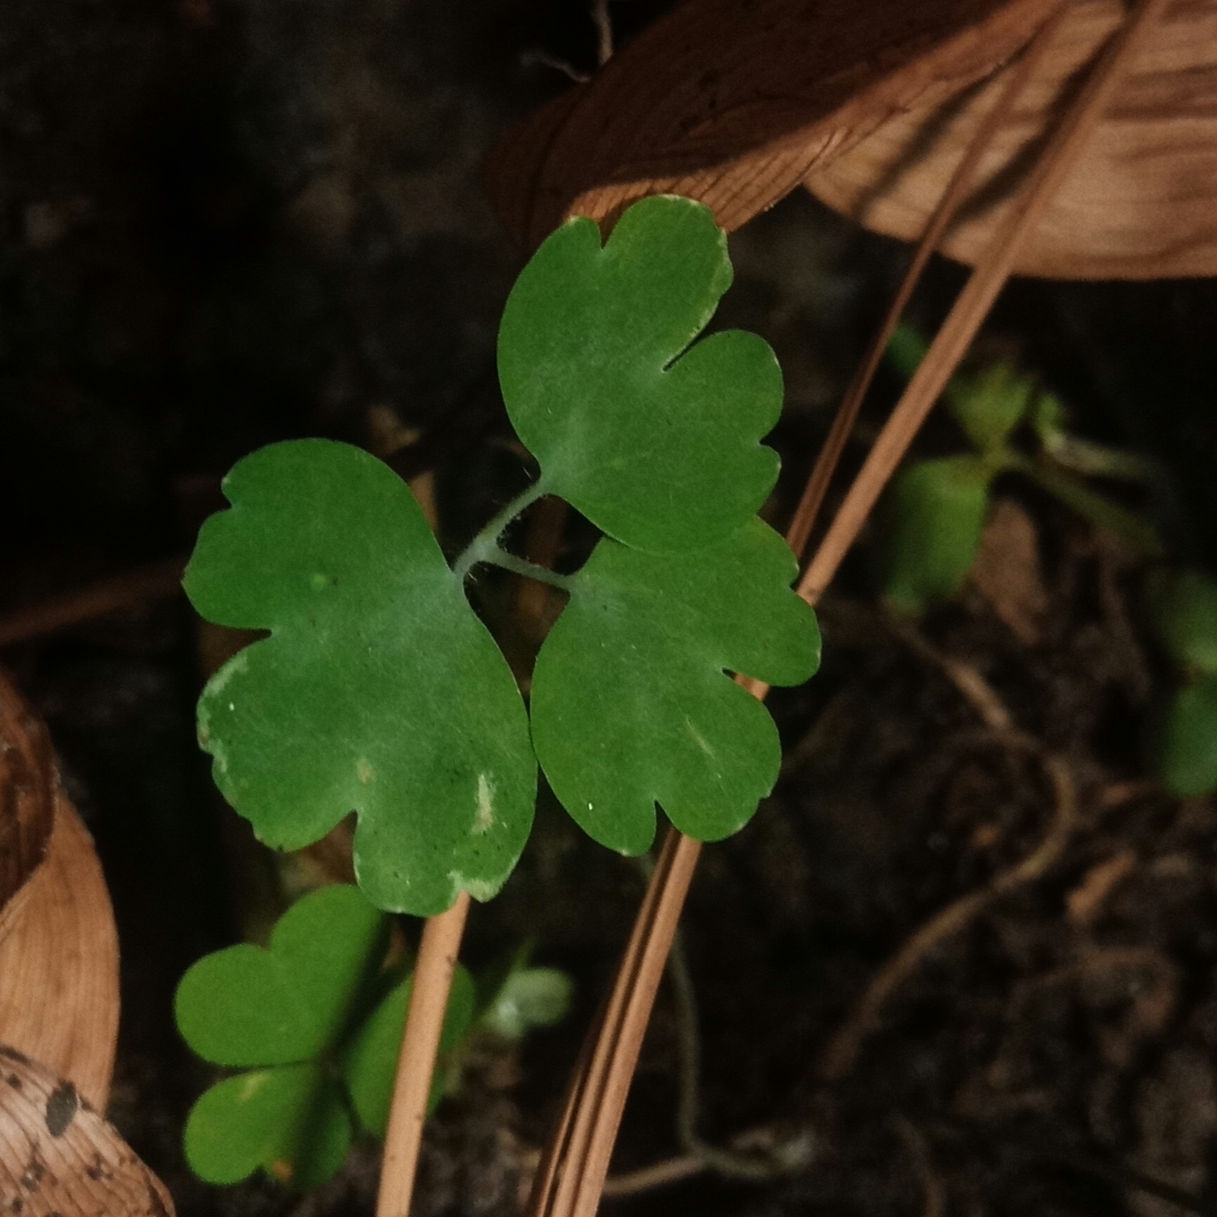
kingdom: Plantae
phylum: Tracheophyta
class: Magnoliopsida
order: Ranunculales
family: Ranunculaceae
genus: Aquilegia
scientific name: Aquilegia
